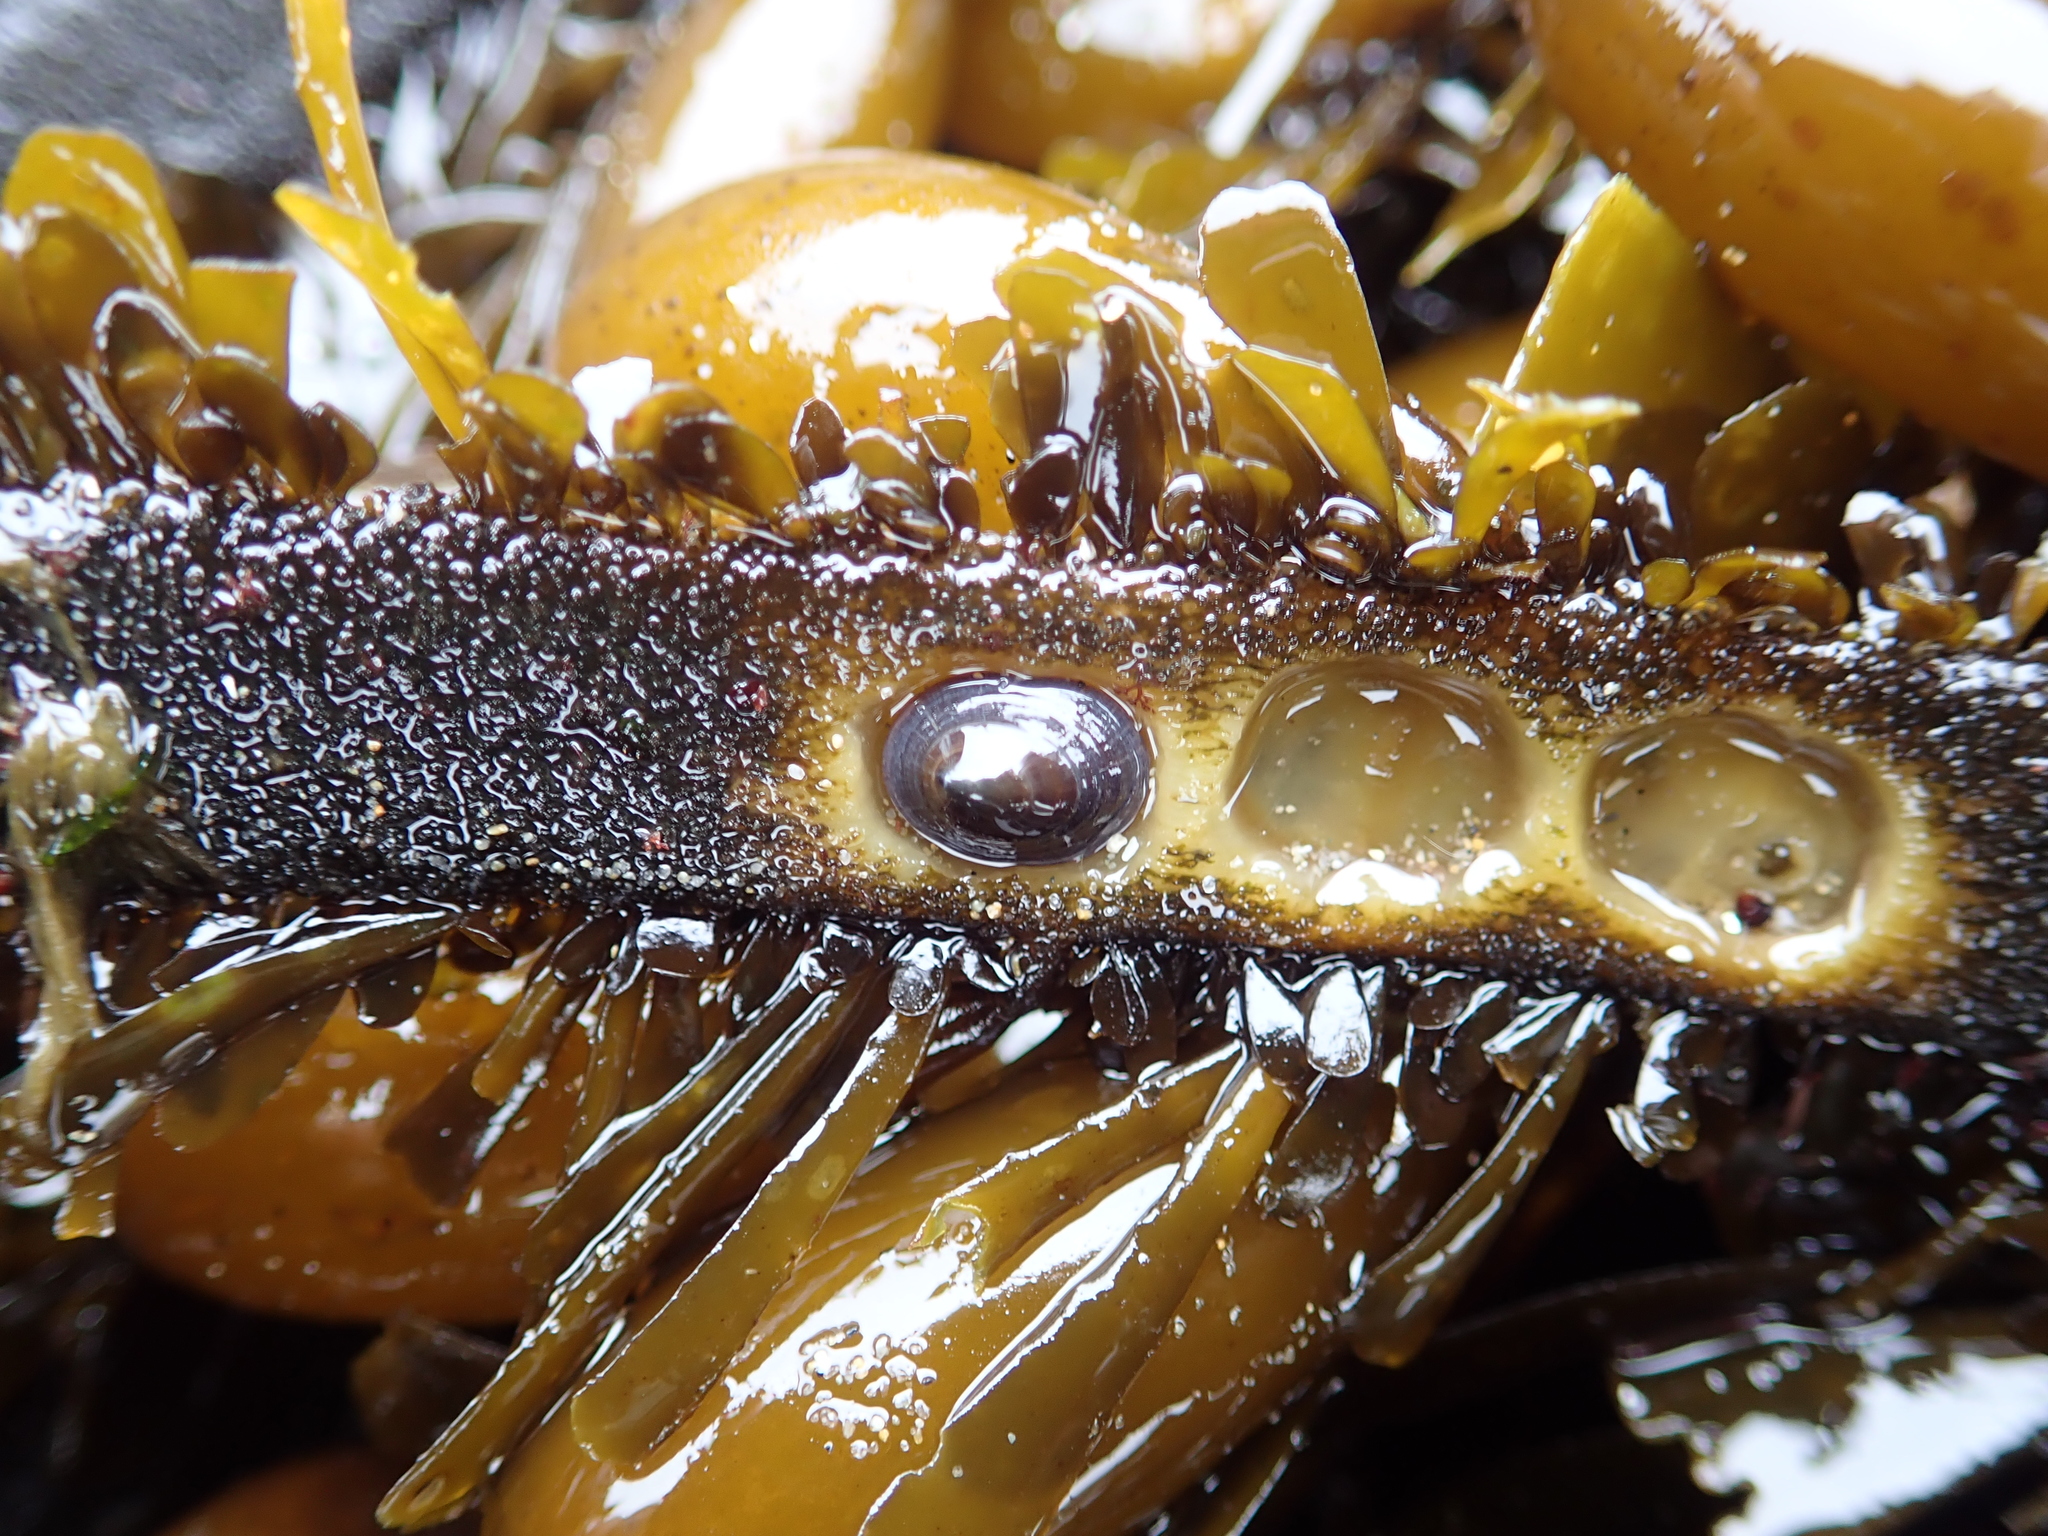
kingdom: Animalia
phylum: Mollusca
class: Gastropoda
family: Lottiidae
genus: Discurria
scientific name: Discurria insessa
